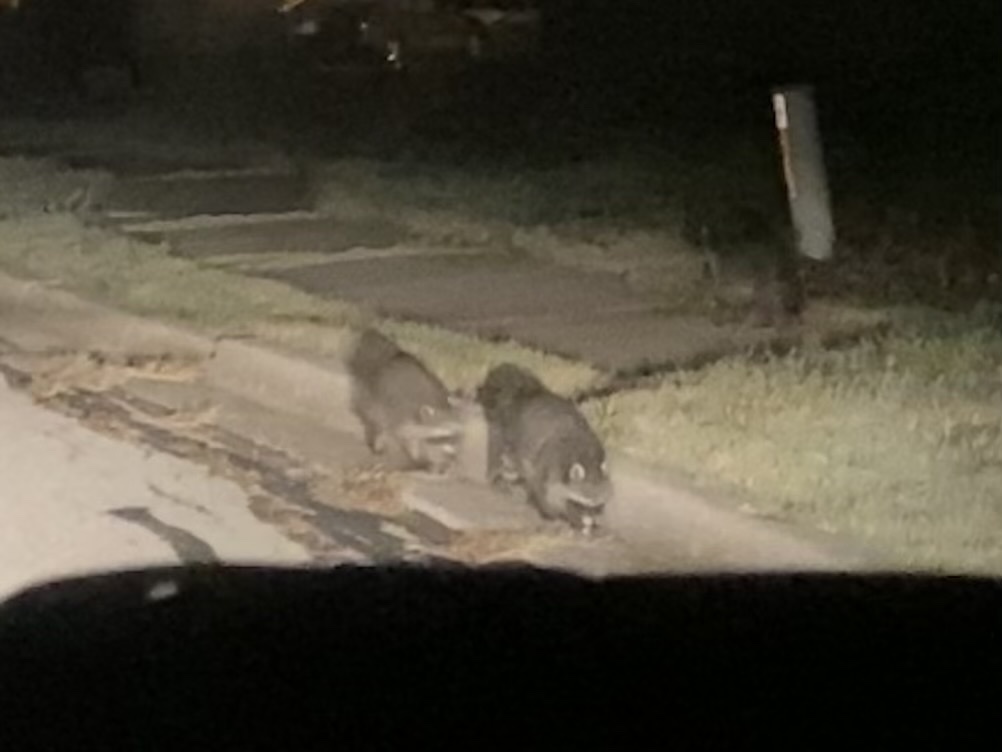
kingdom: Animalia
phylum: Chordata
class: Mammalia
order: Carnivora
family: Procyonidae
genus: Procyon
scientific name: Procyon lotor
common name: Raccoon
